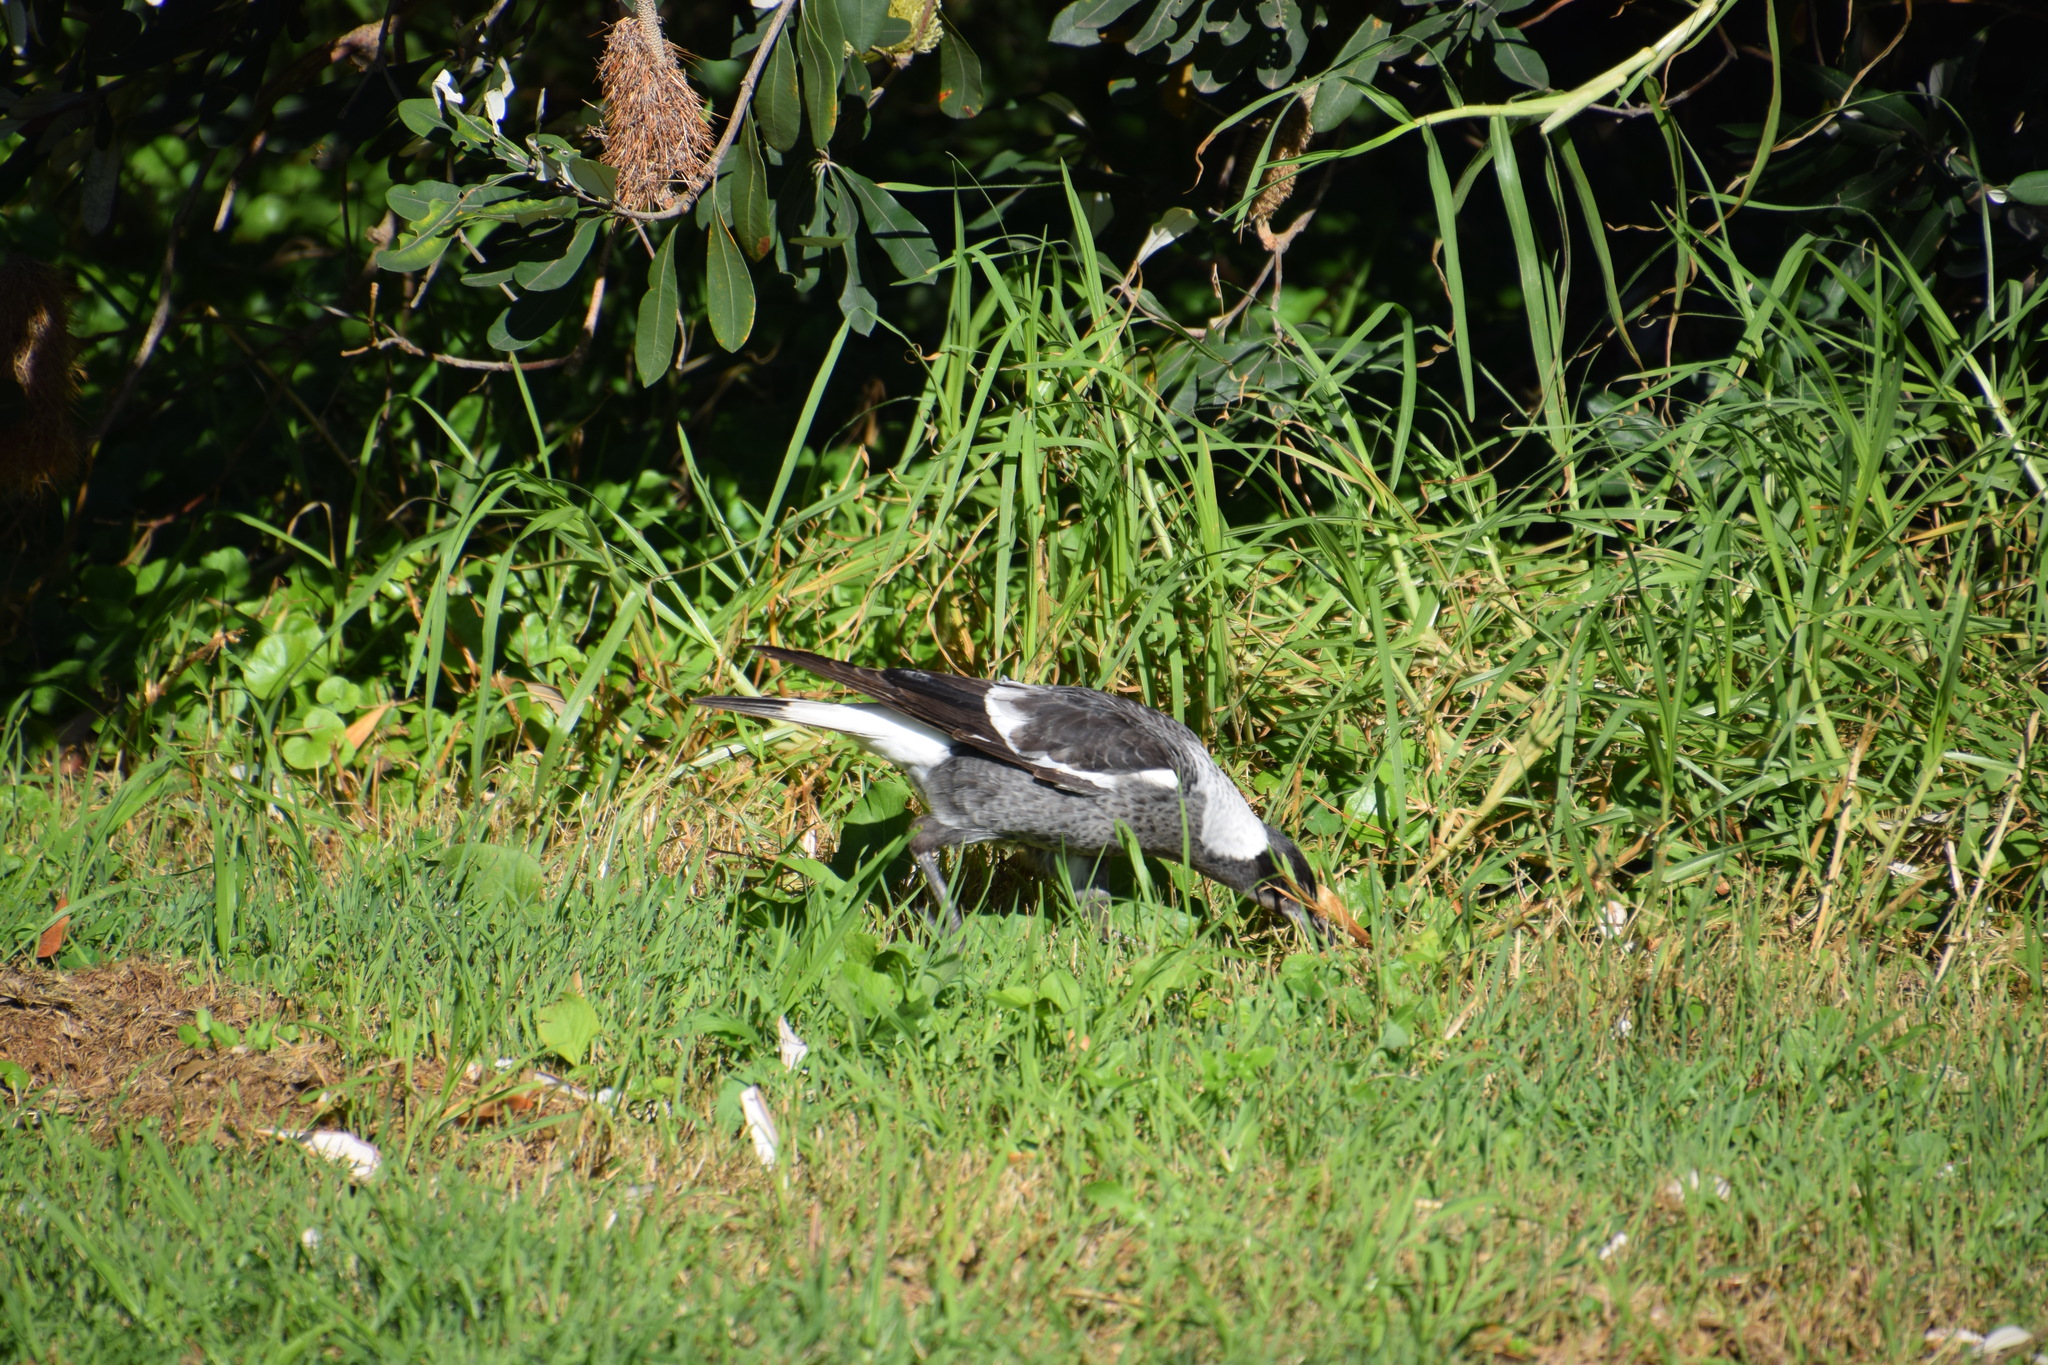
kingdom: Animalia
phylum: Chordata
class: Aves
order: Passeriformes
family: Cracticidae
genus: Gymnorhina
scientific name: Gymnorhina tibicen
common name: Australian magpie
